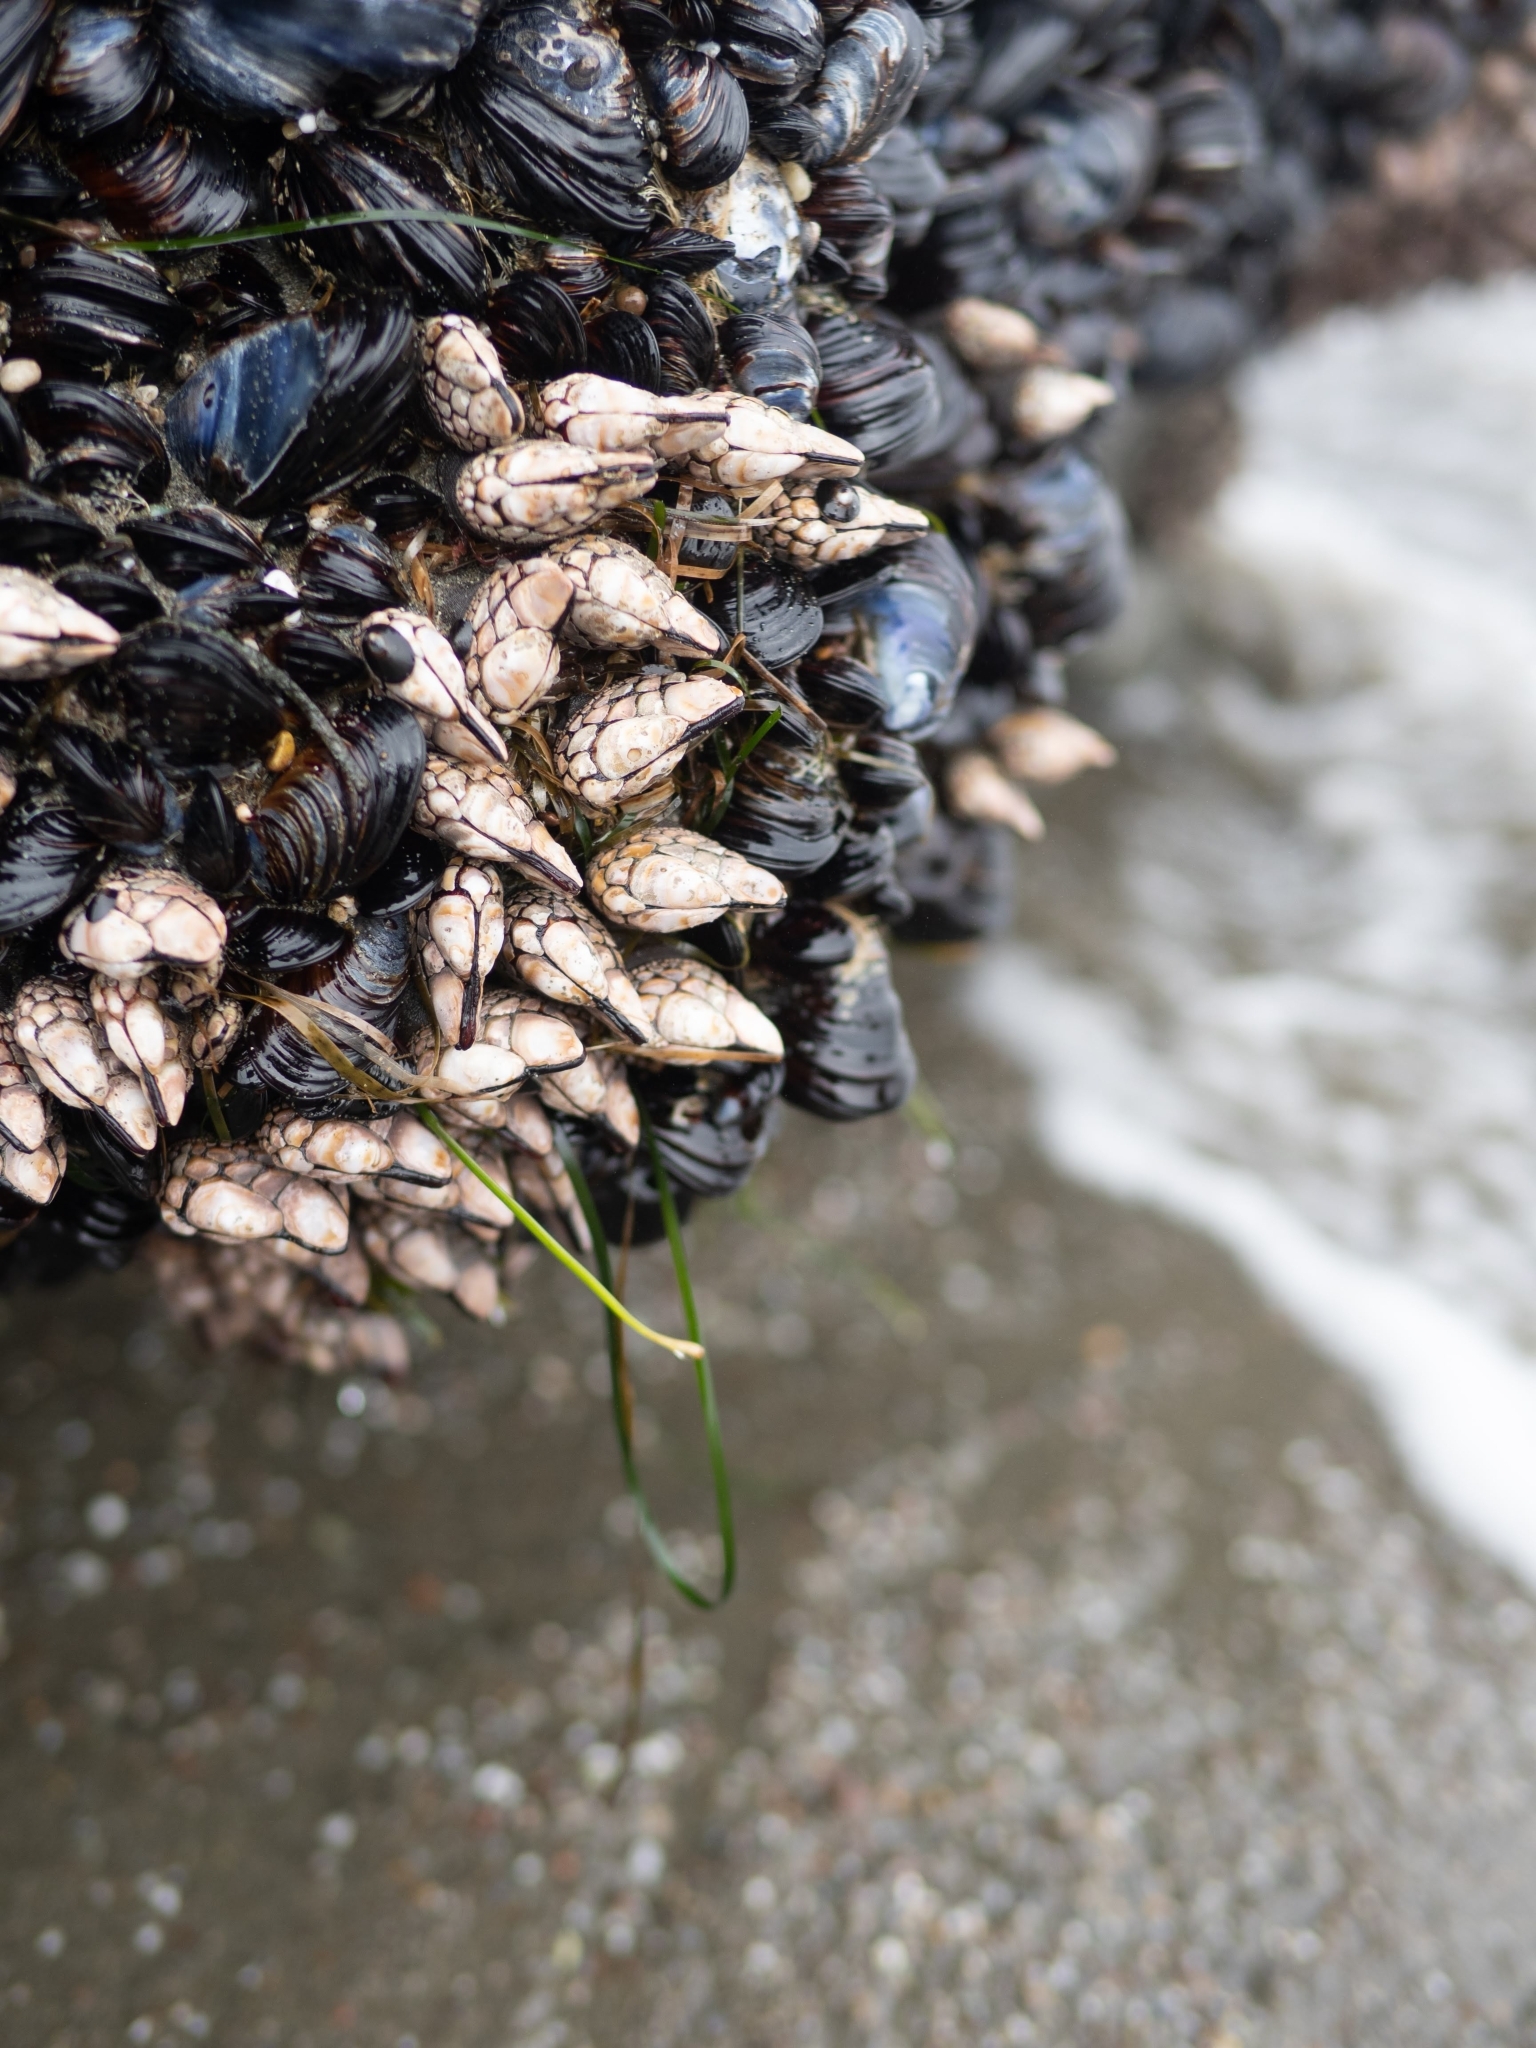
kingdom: Animalia
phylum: Arthropoda
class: Maxillopoda
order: Pedunculata
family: Pollicipedidae
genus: Pollicipes
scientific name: Pollicipes polymerus
